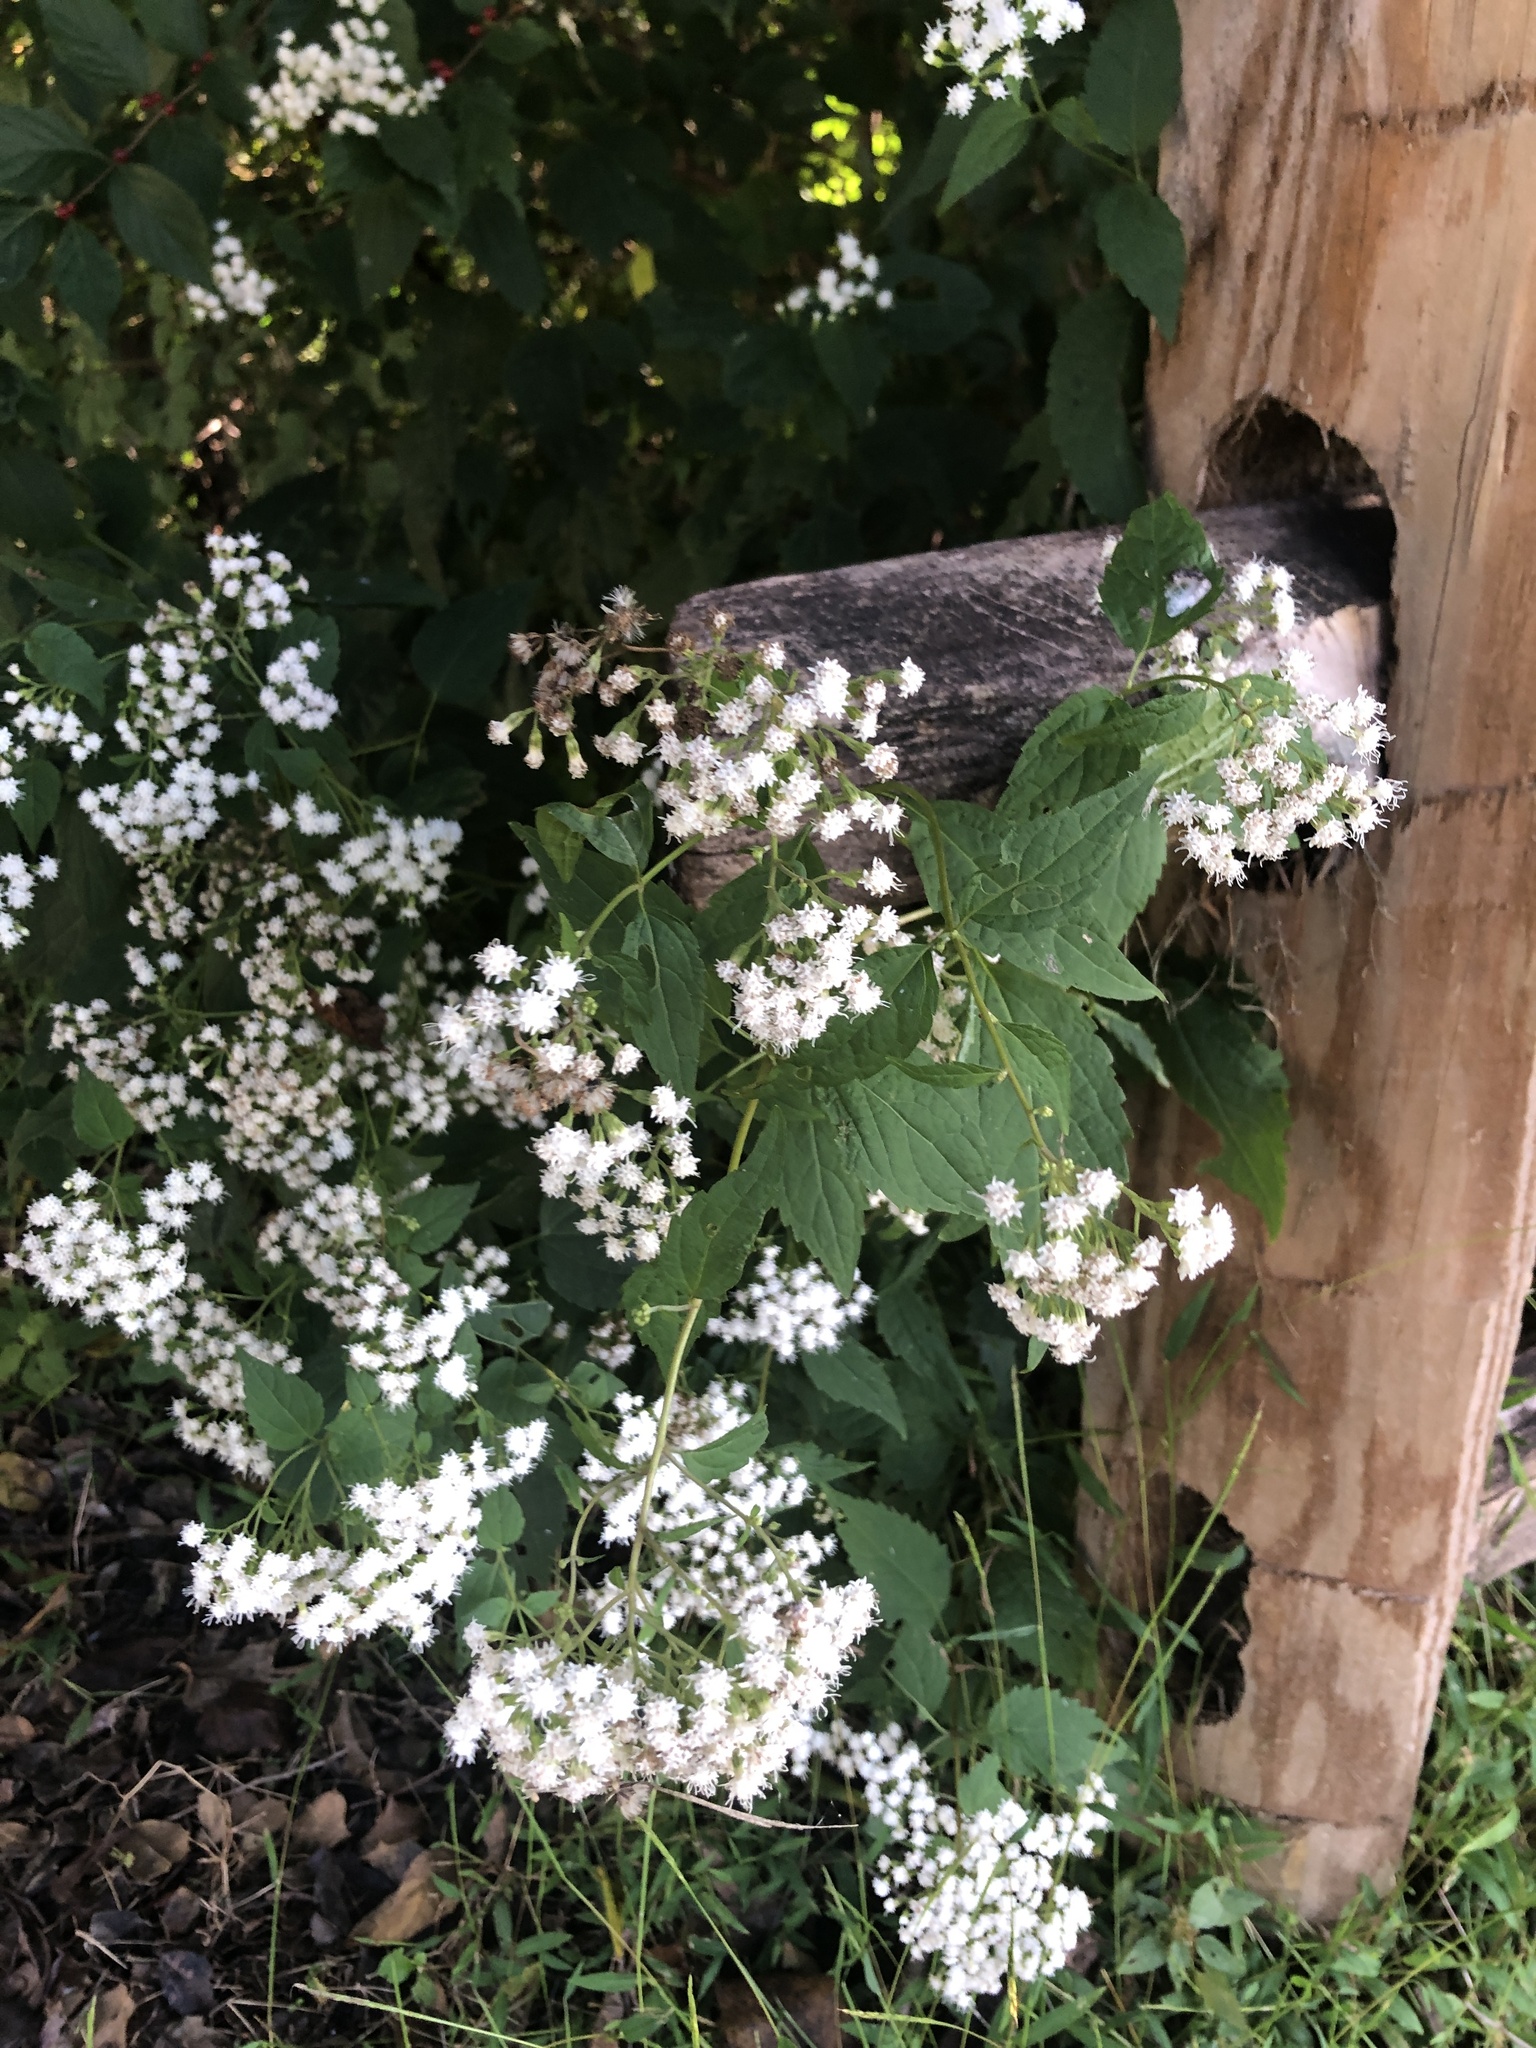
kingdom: Plantae
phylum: Tracheophyta
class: Magnoliopsida
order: Asterales
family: Asteraceae
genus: Ageratina
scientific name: Ageratina altissima
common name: White snakeroot
